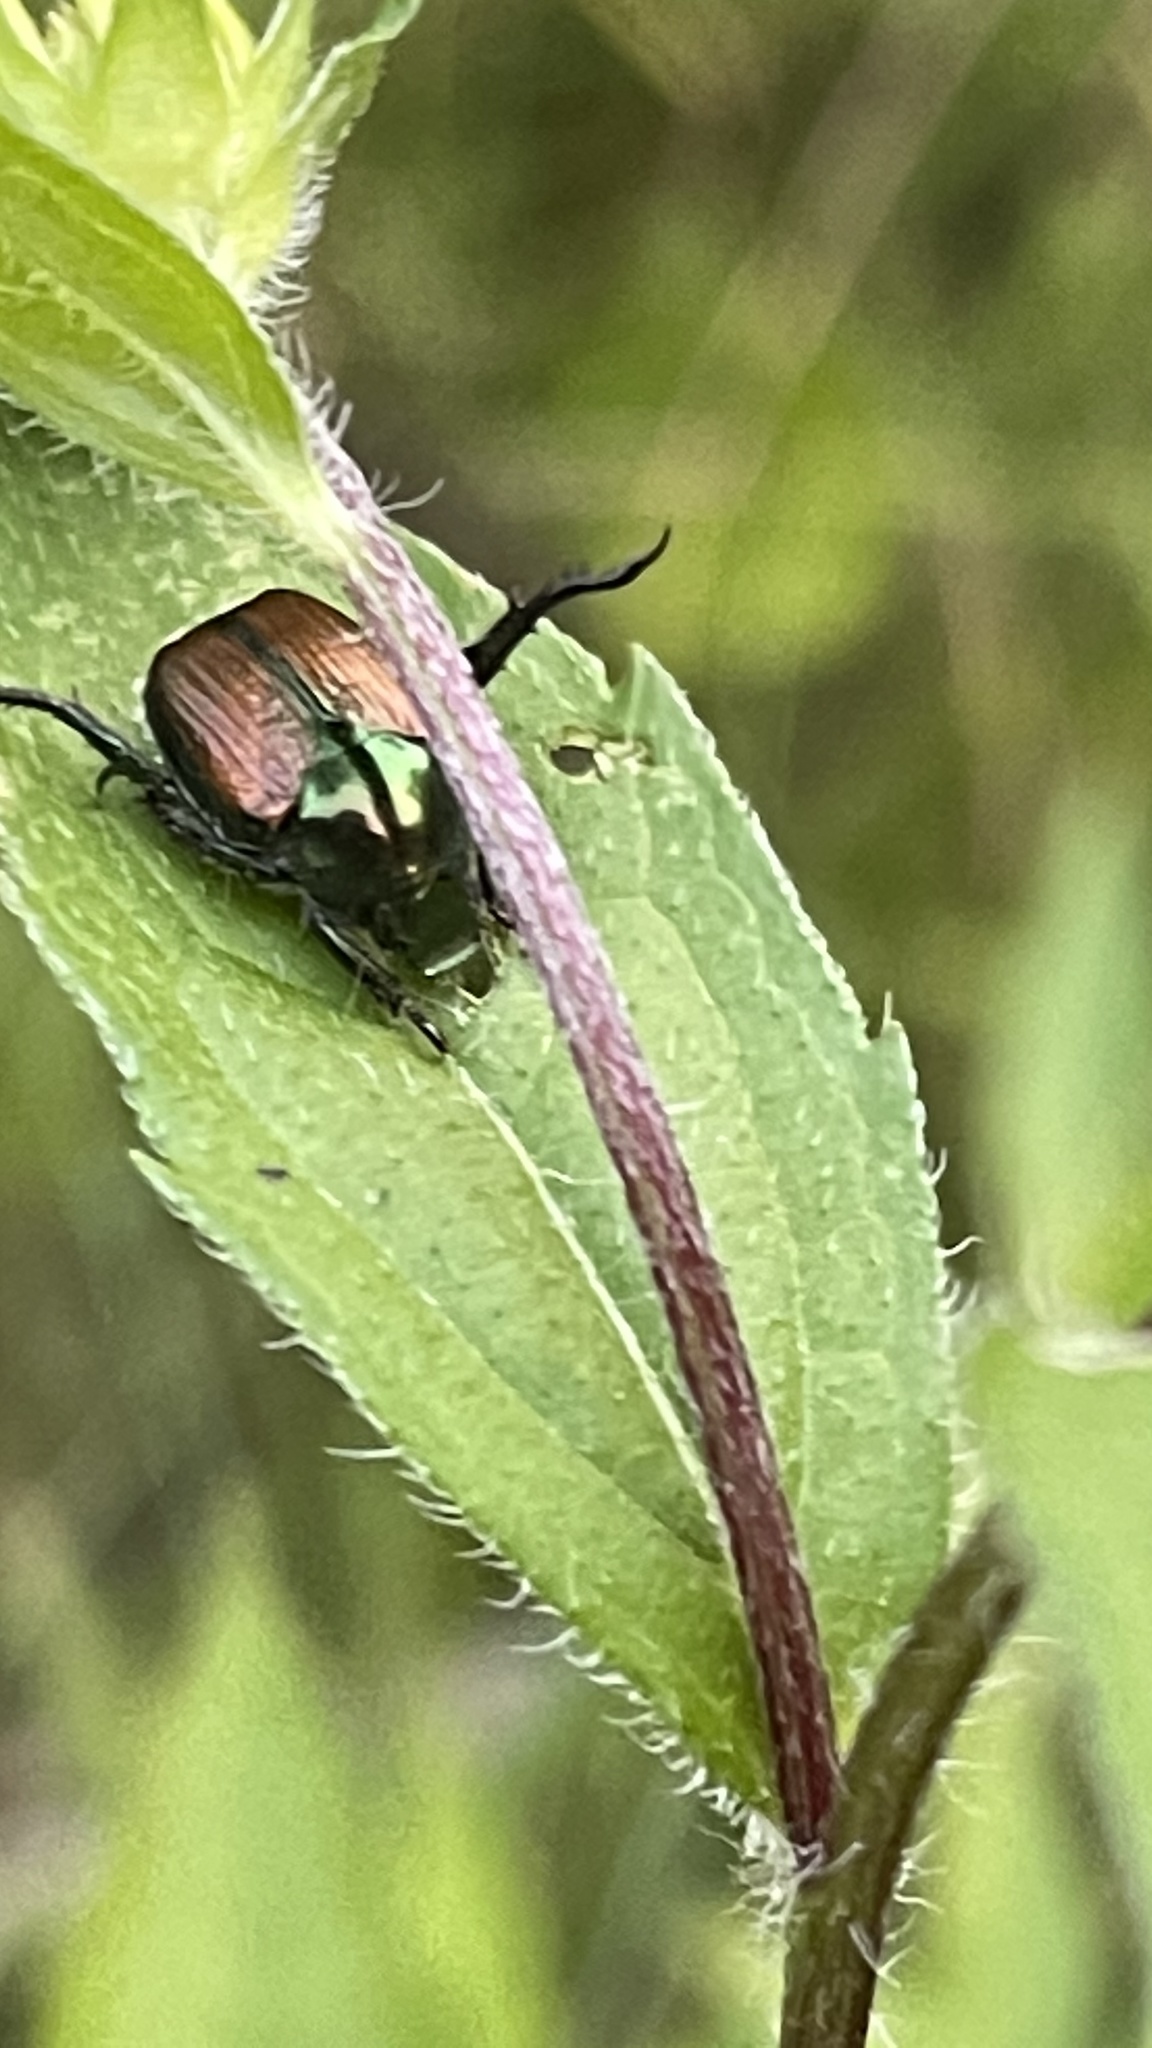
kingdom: Animalia
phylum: Arthropoda
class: Insecta
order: Coleoptera
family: Scarabaeidae
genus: Popillia
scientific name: Popillia japonica
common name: Japanese beetle
